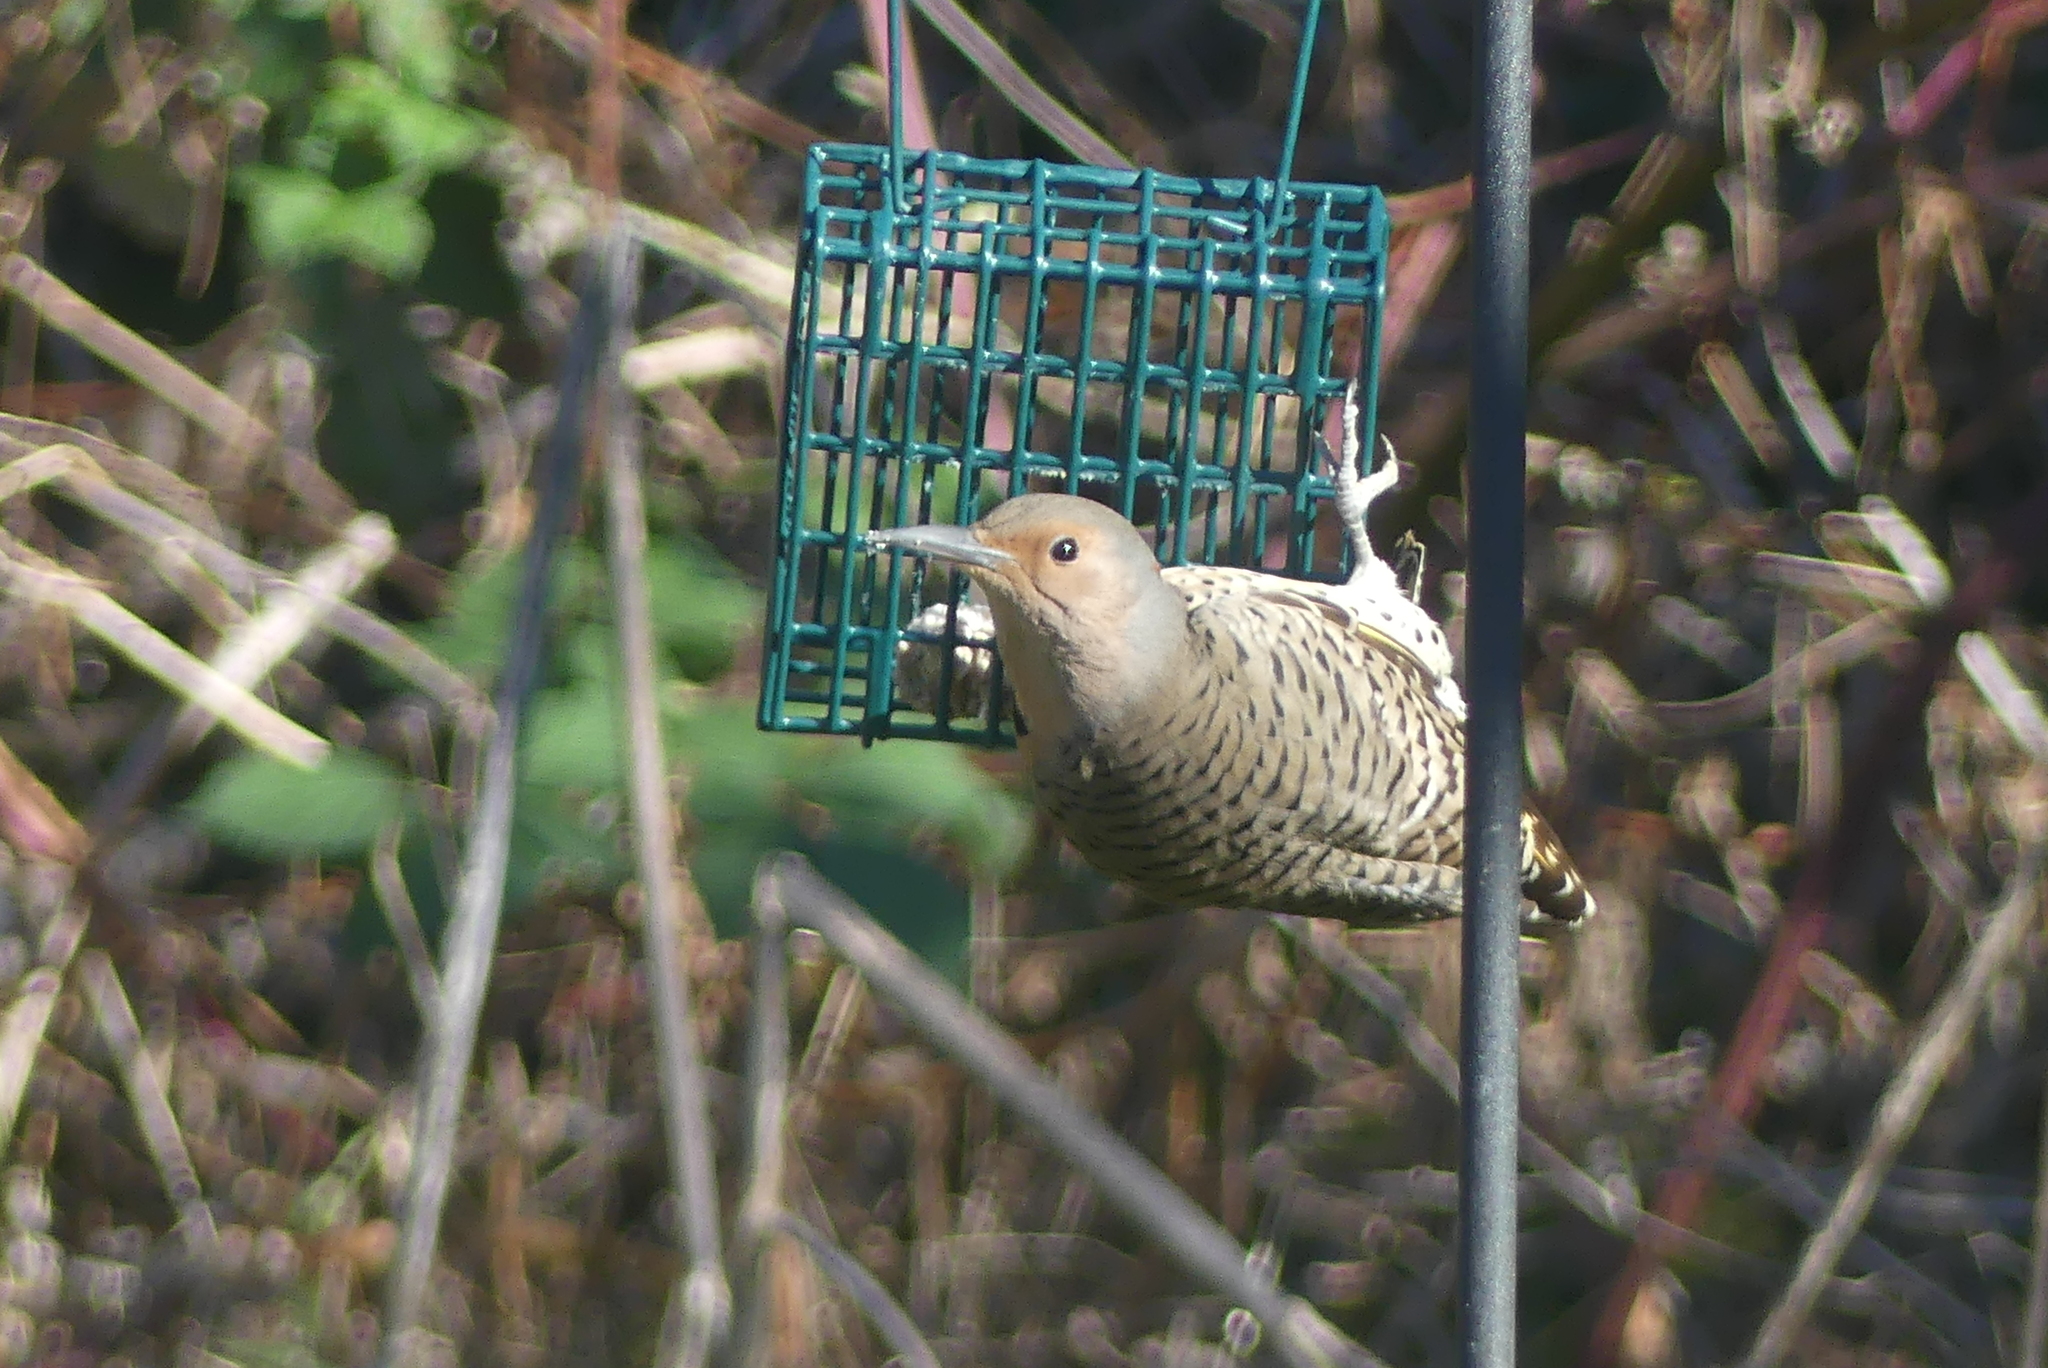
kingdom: Animalia
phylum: Chordata
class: Aves
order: Piciformes
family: Picidae
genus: Colaptes
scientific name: Colaptes auratus
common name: Northern flicker
